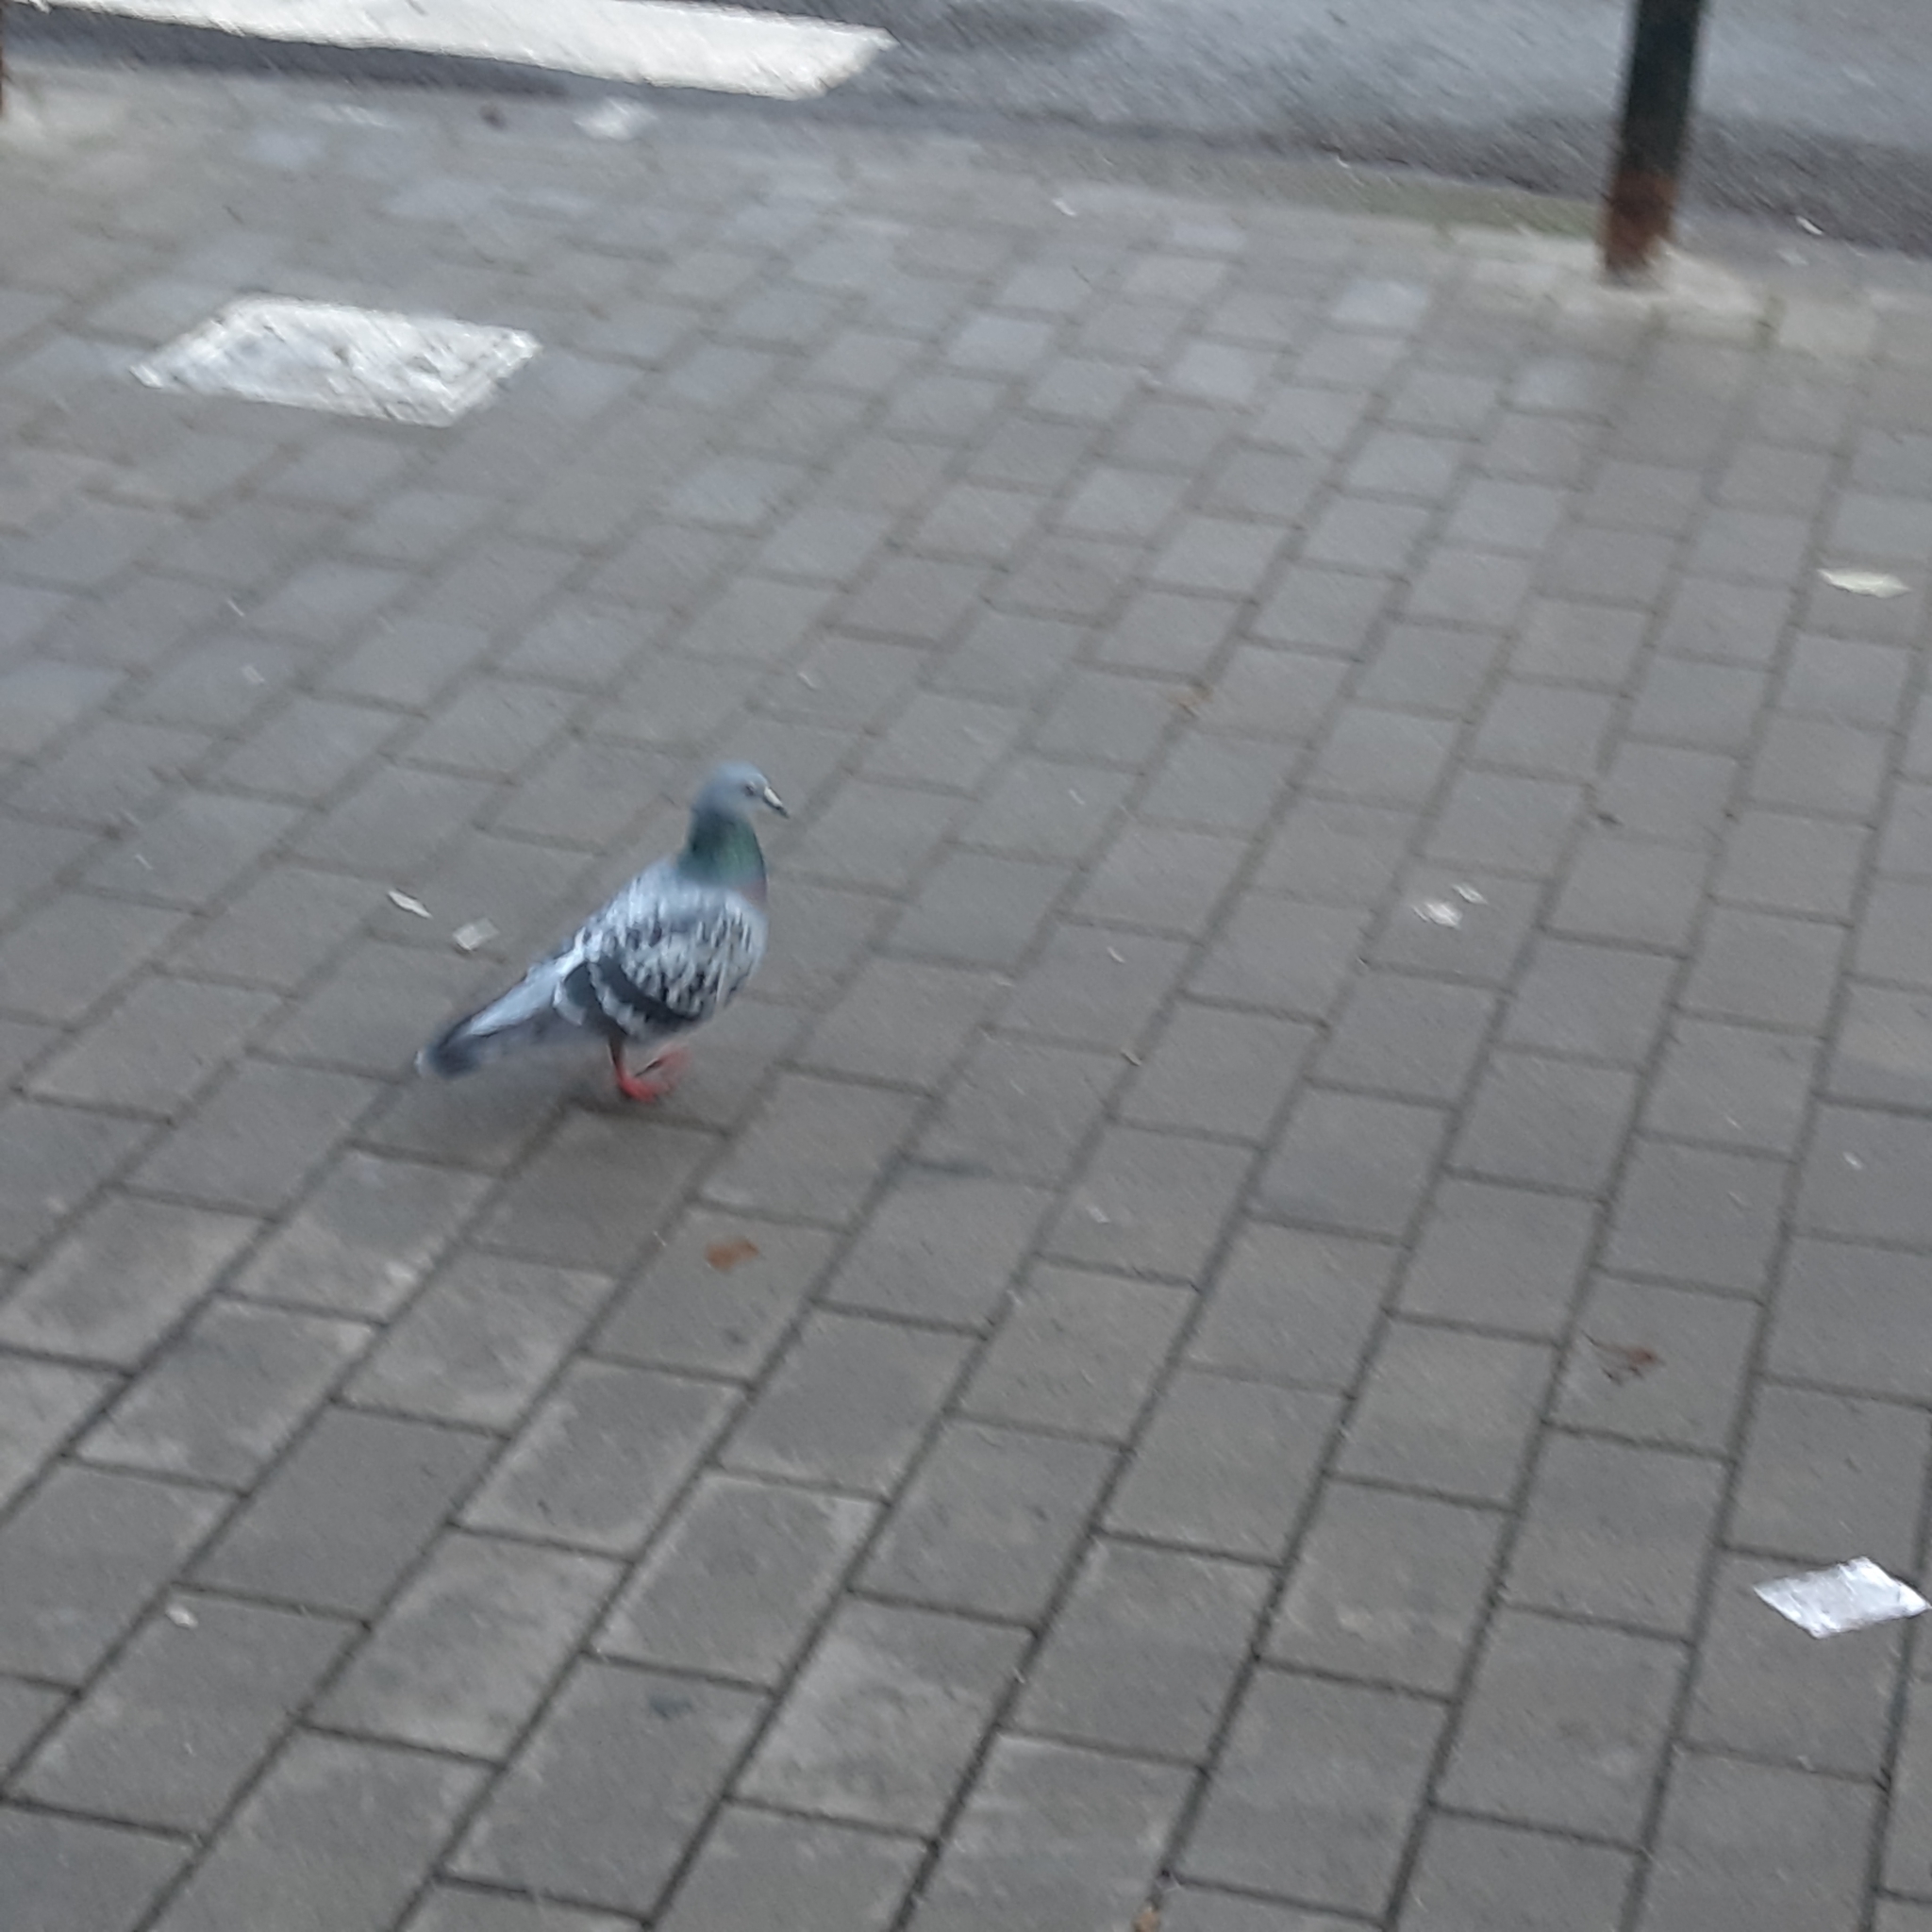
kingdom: Animalia
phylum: Chordata
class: Aves
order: Columbiformes
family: Columbidae
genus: Columba
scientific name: Columba livia
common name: Rock pigeon
